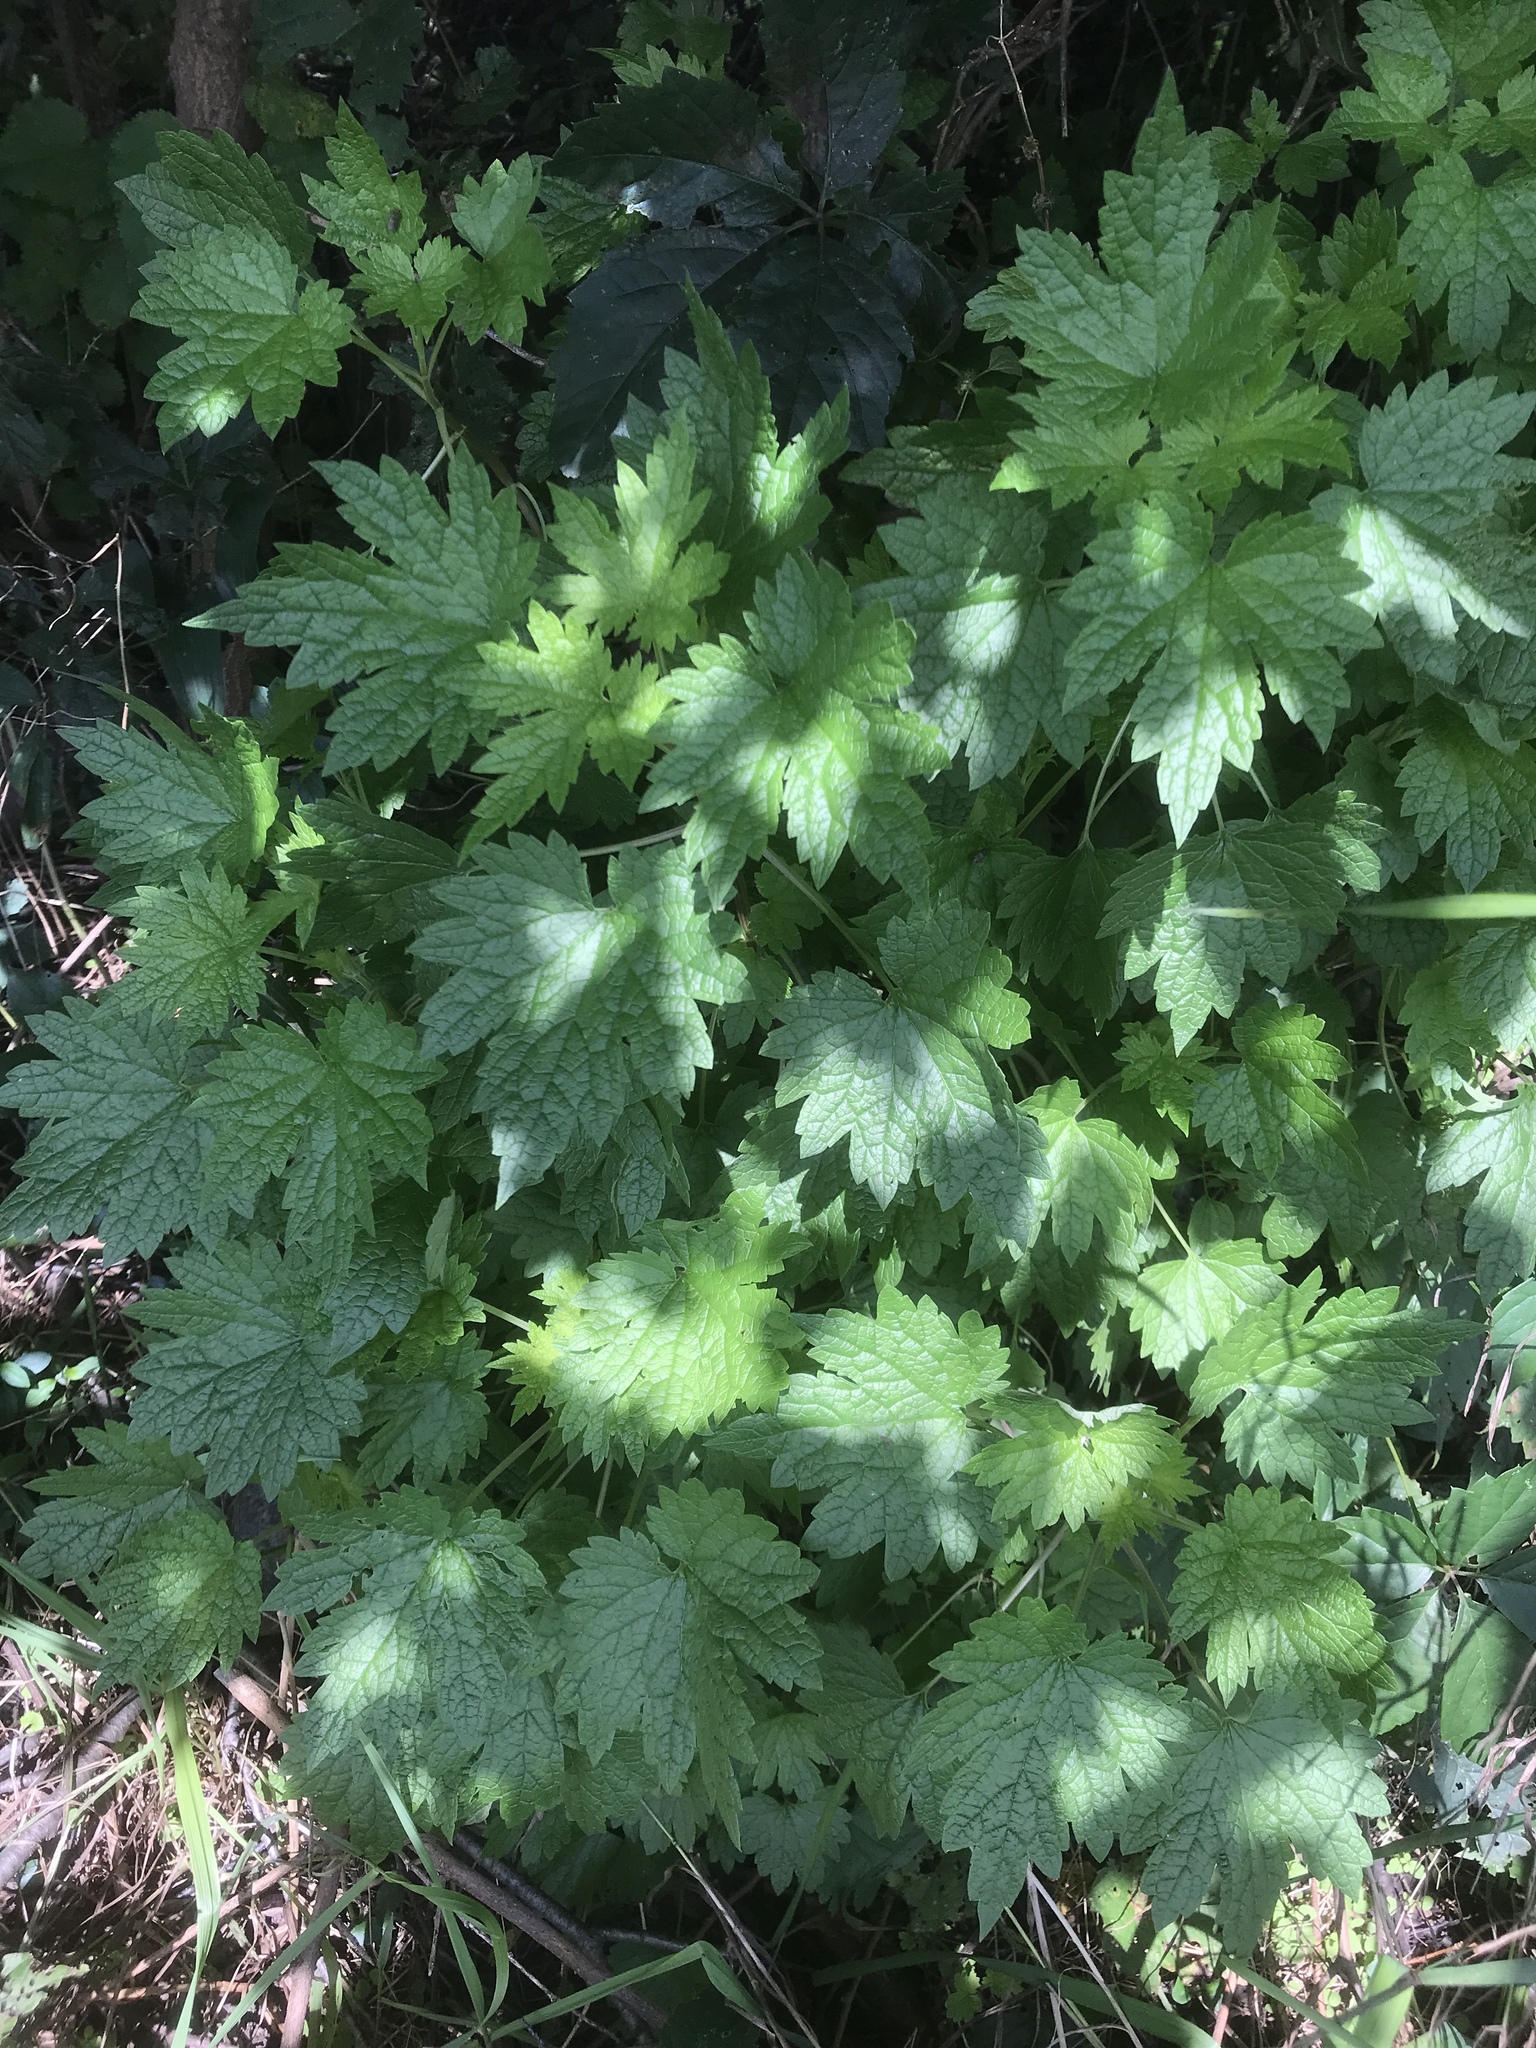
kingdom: Plantae
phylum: Tracheophyta
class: Magnoliopsida
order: Lamiales
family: Lamiaceae
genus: Leonurus
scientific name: Leonurus cardiaca
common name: Motherwort
